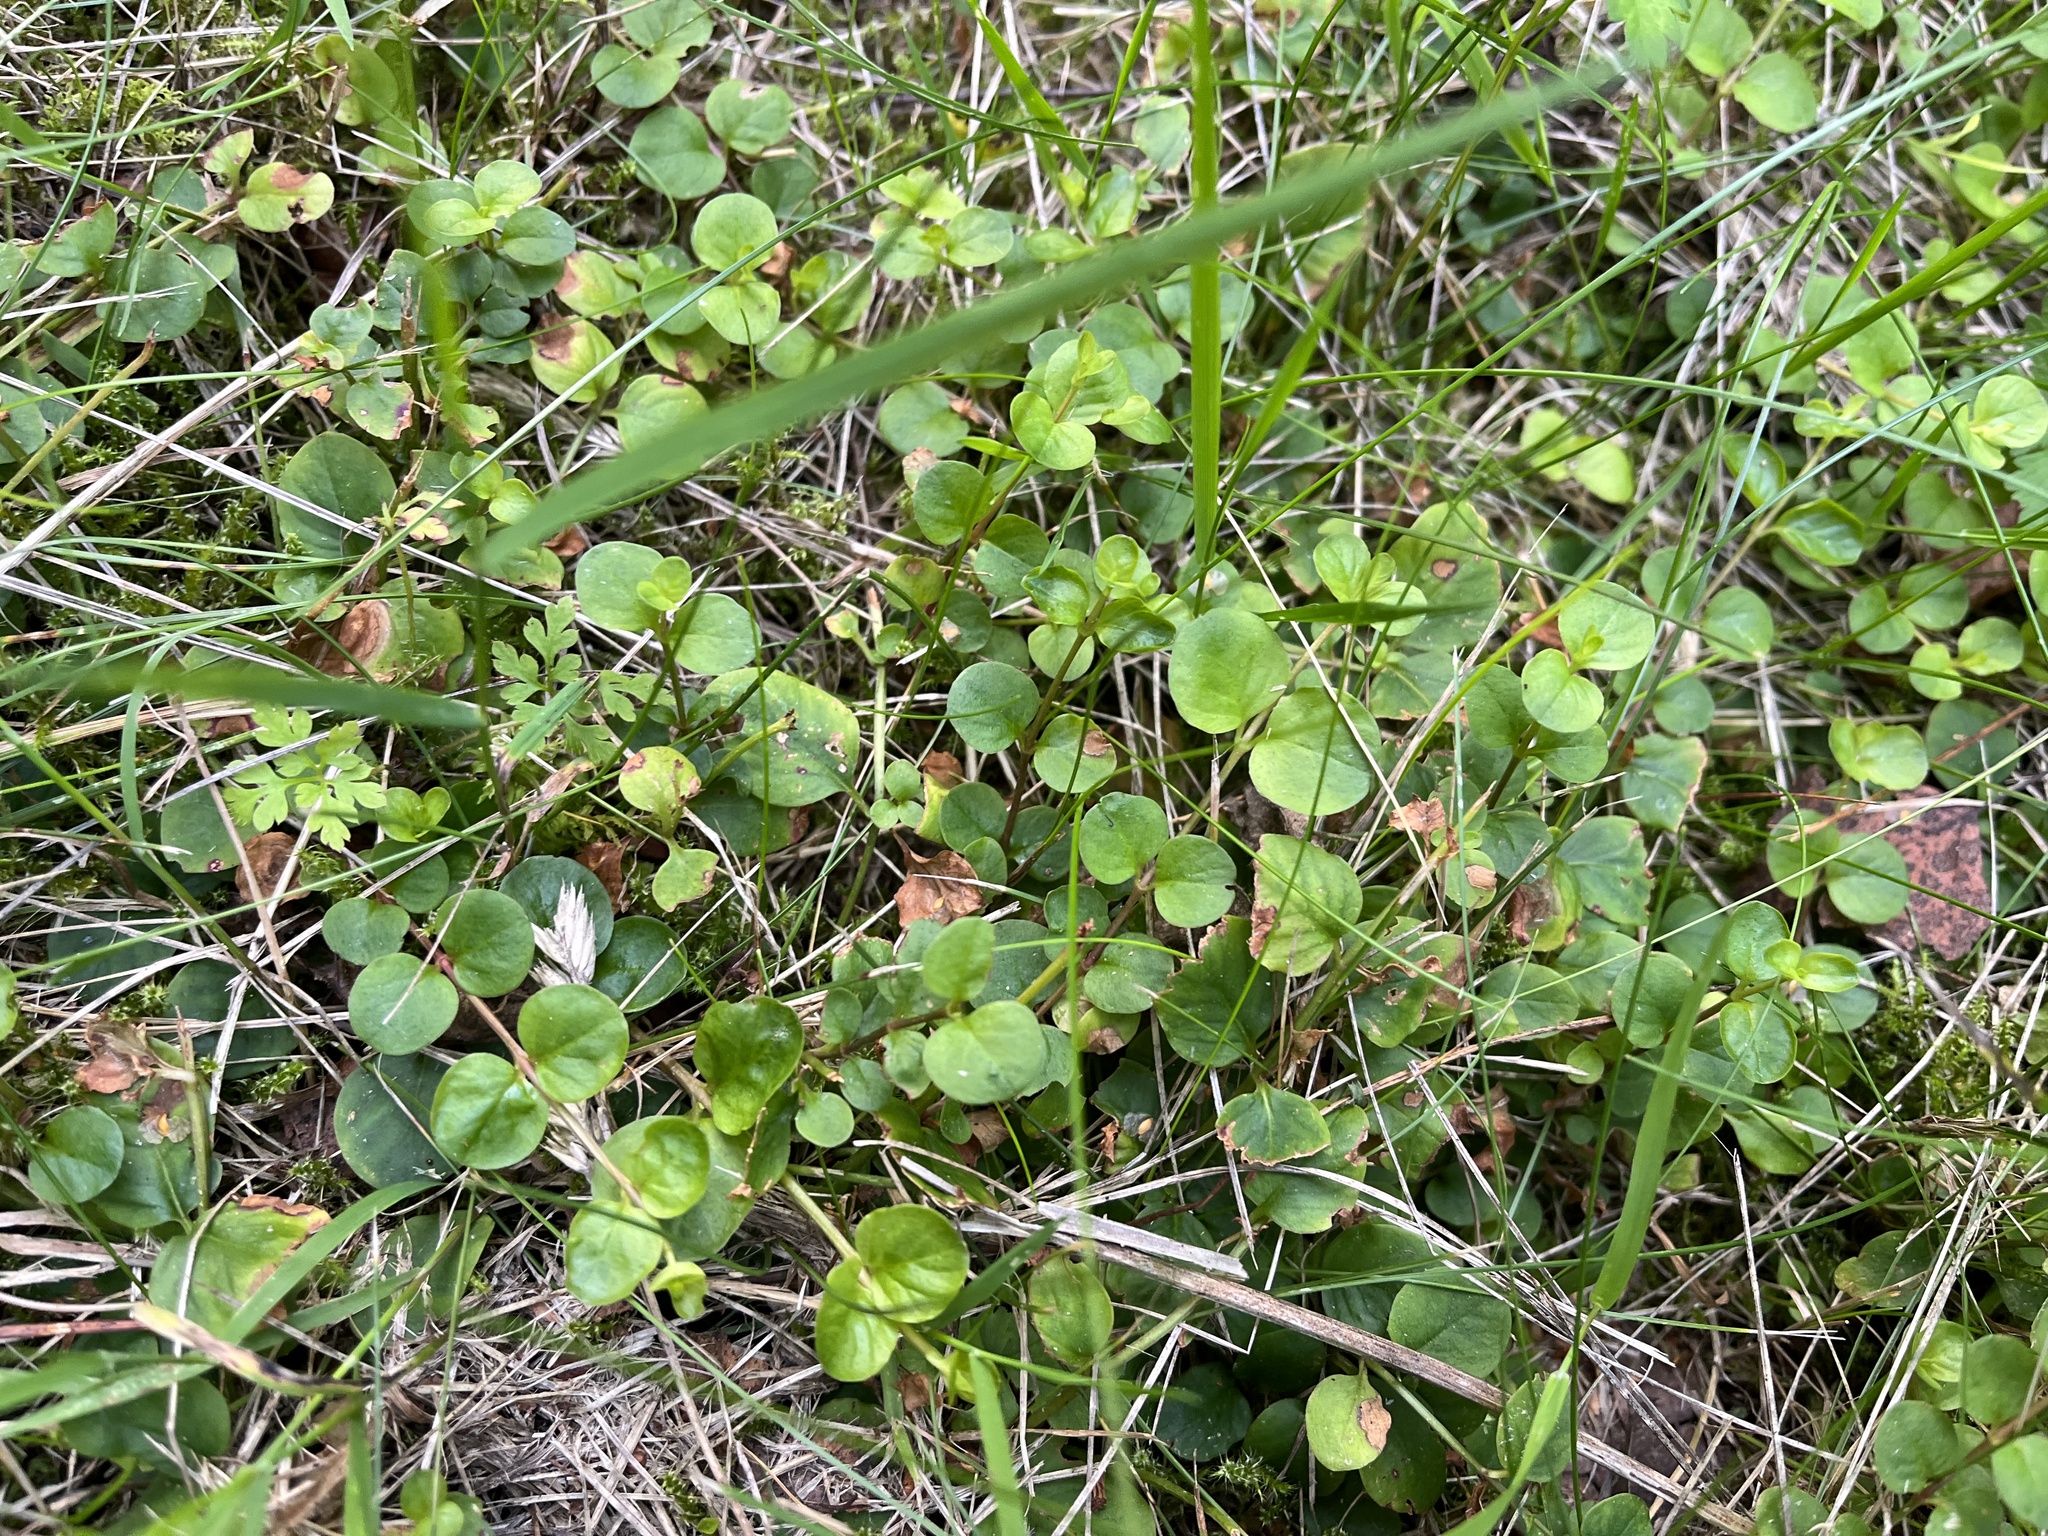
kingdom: Plantae
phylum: Tracheophyta
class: Magnoliopsida
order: Ericales
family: Primulaceae
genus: Lysimachia
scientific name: Lysimachia nummularia
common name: Moneywort
